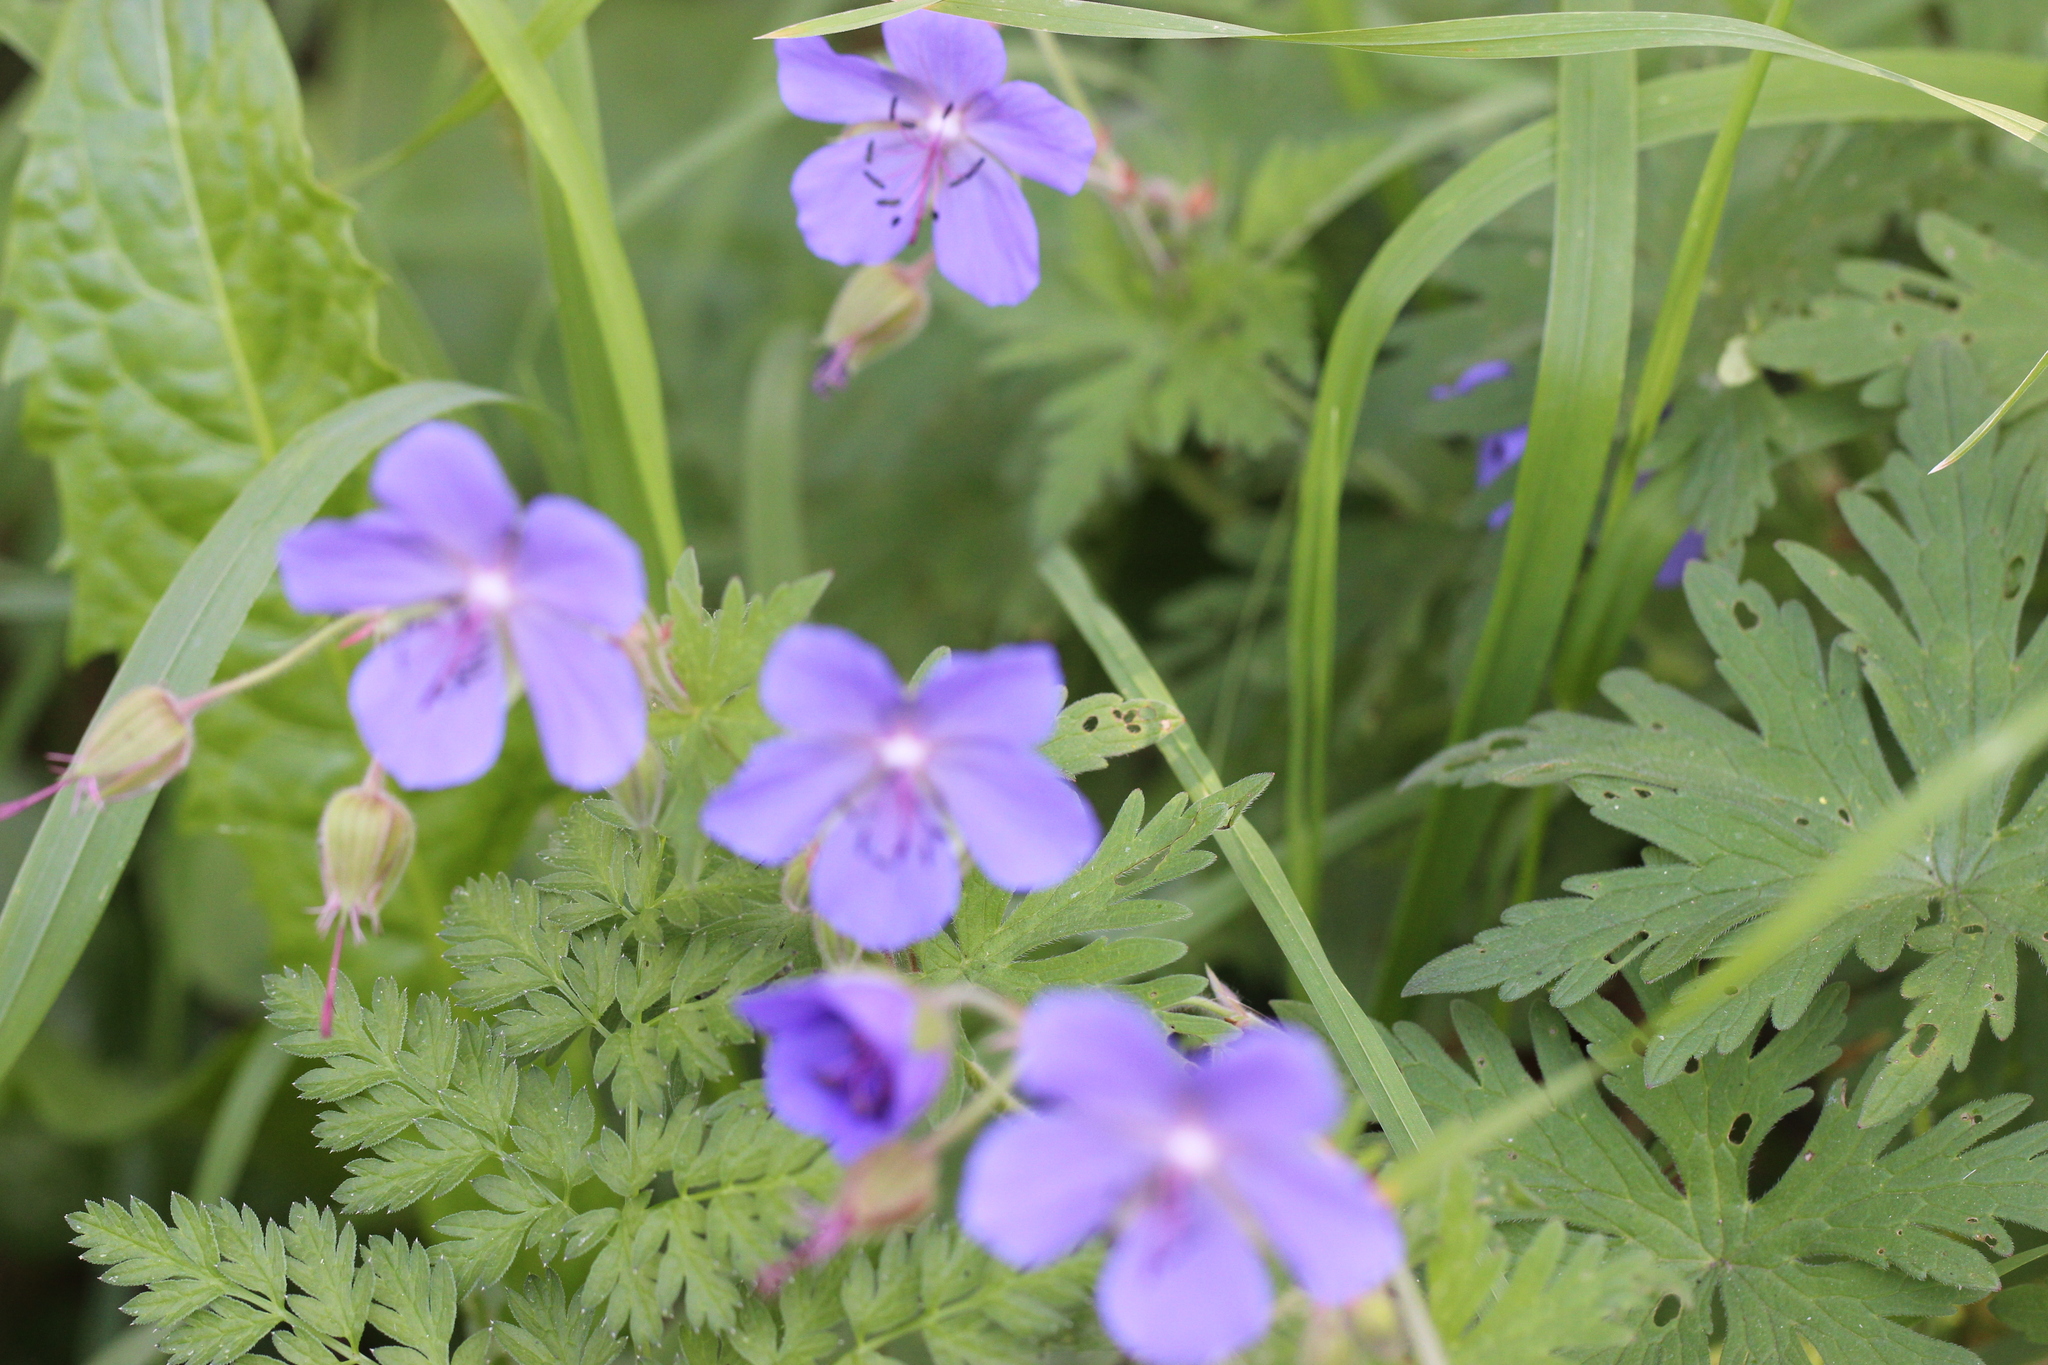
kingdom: Plantae
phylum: Tracheophyta
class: Magnoliopsida
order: Geraniales
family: Geraniaceae
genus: Geranium
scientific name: Geranium pratense
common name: Meadow crane's-bill
